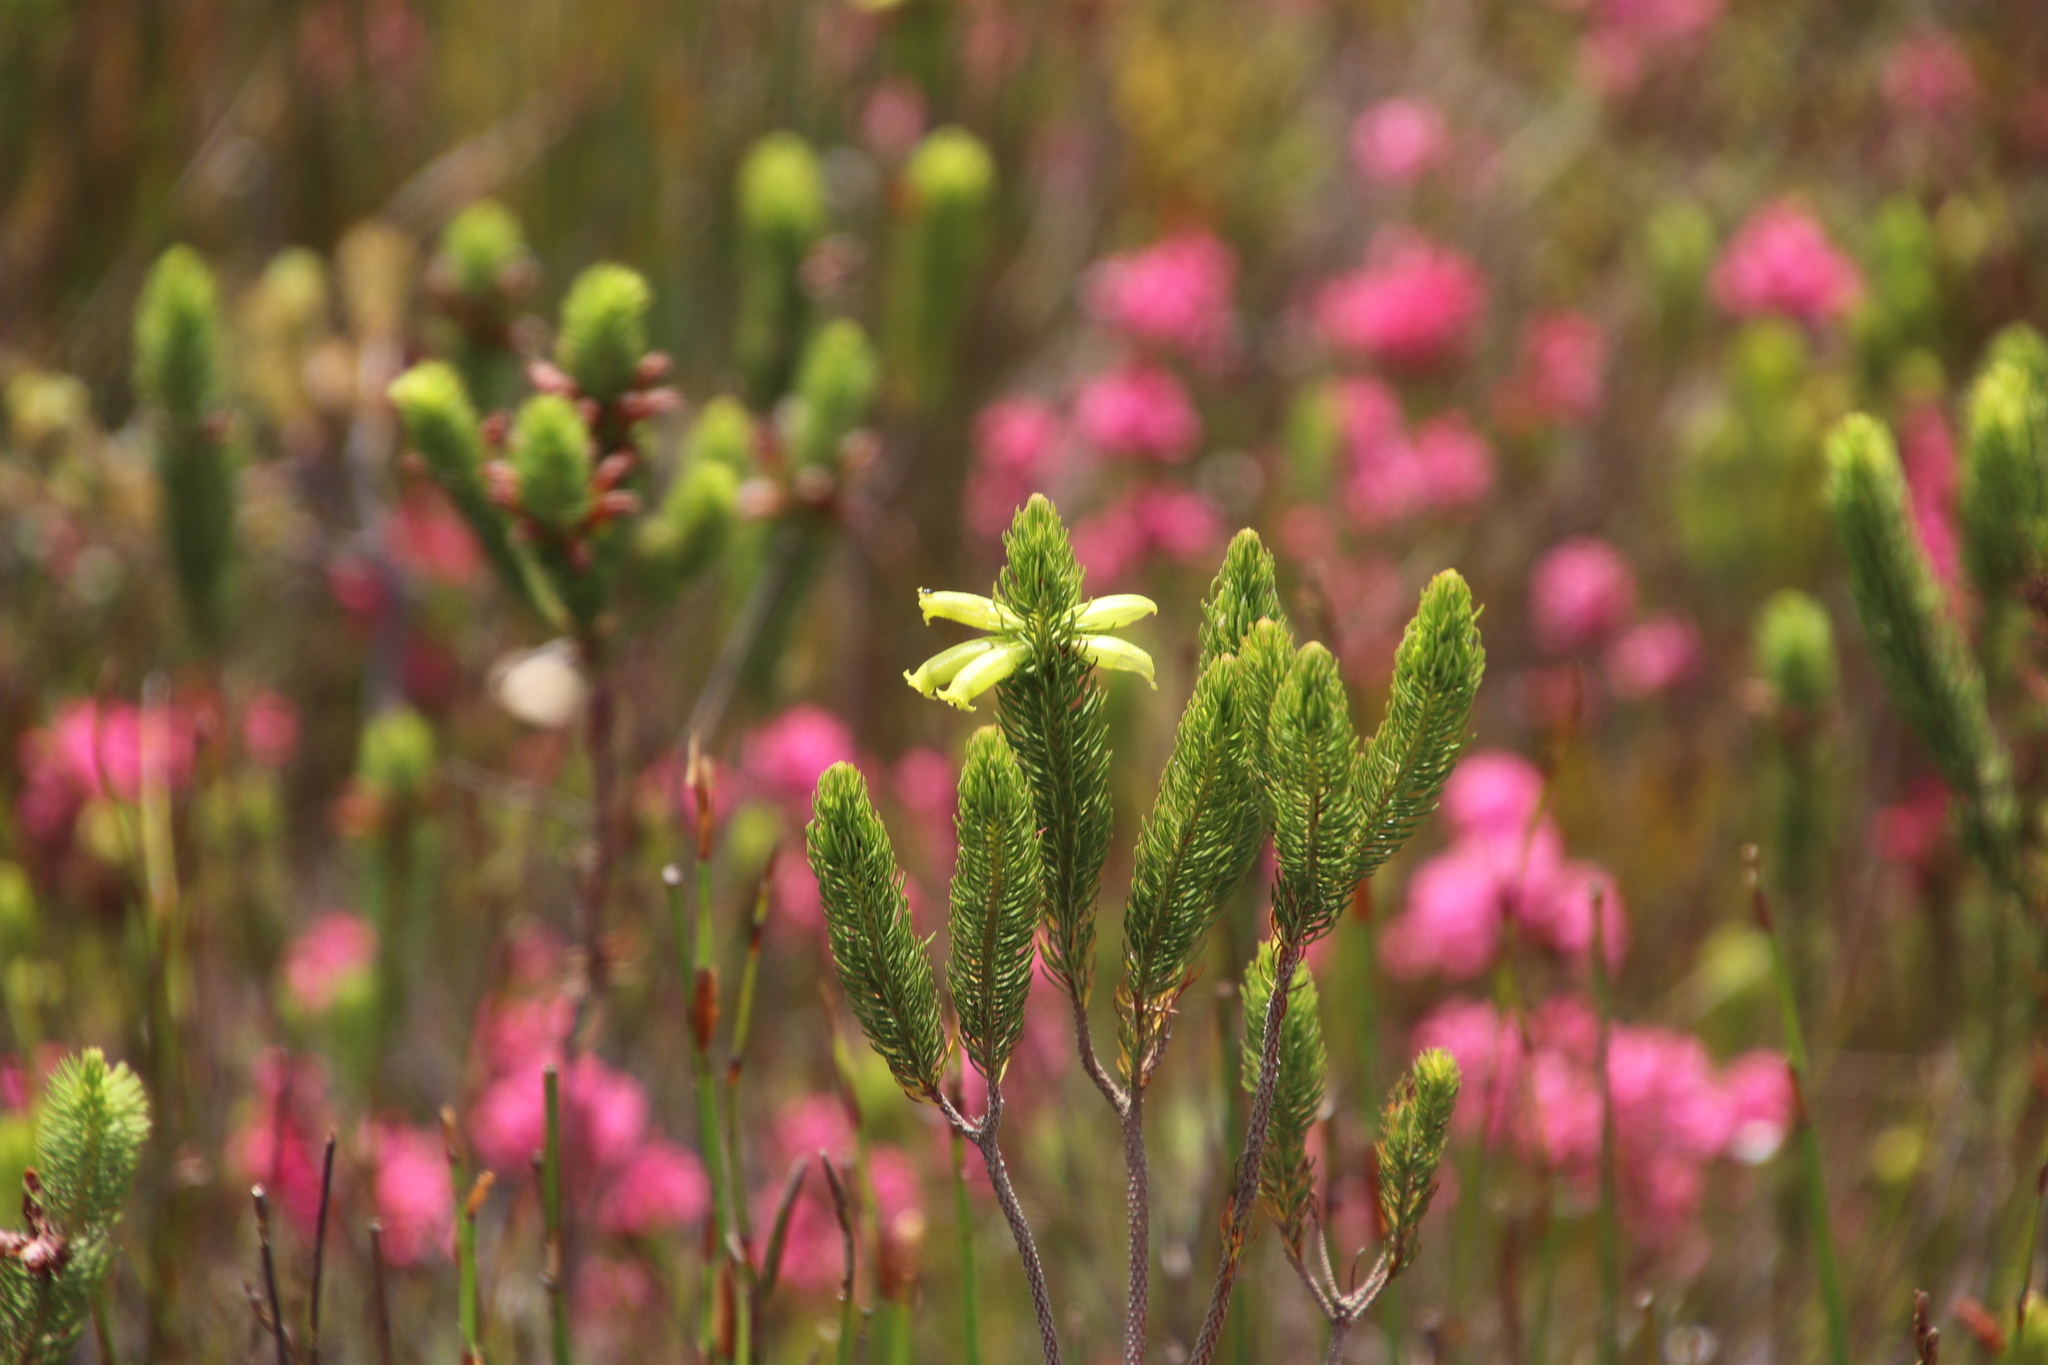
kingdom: Plantae
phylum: Tracheophyta
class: Magnoliopsida
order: Ericales
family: Ericaceae
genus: Erica
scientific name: Erica viscaria
